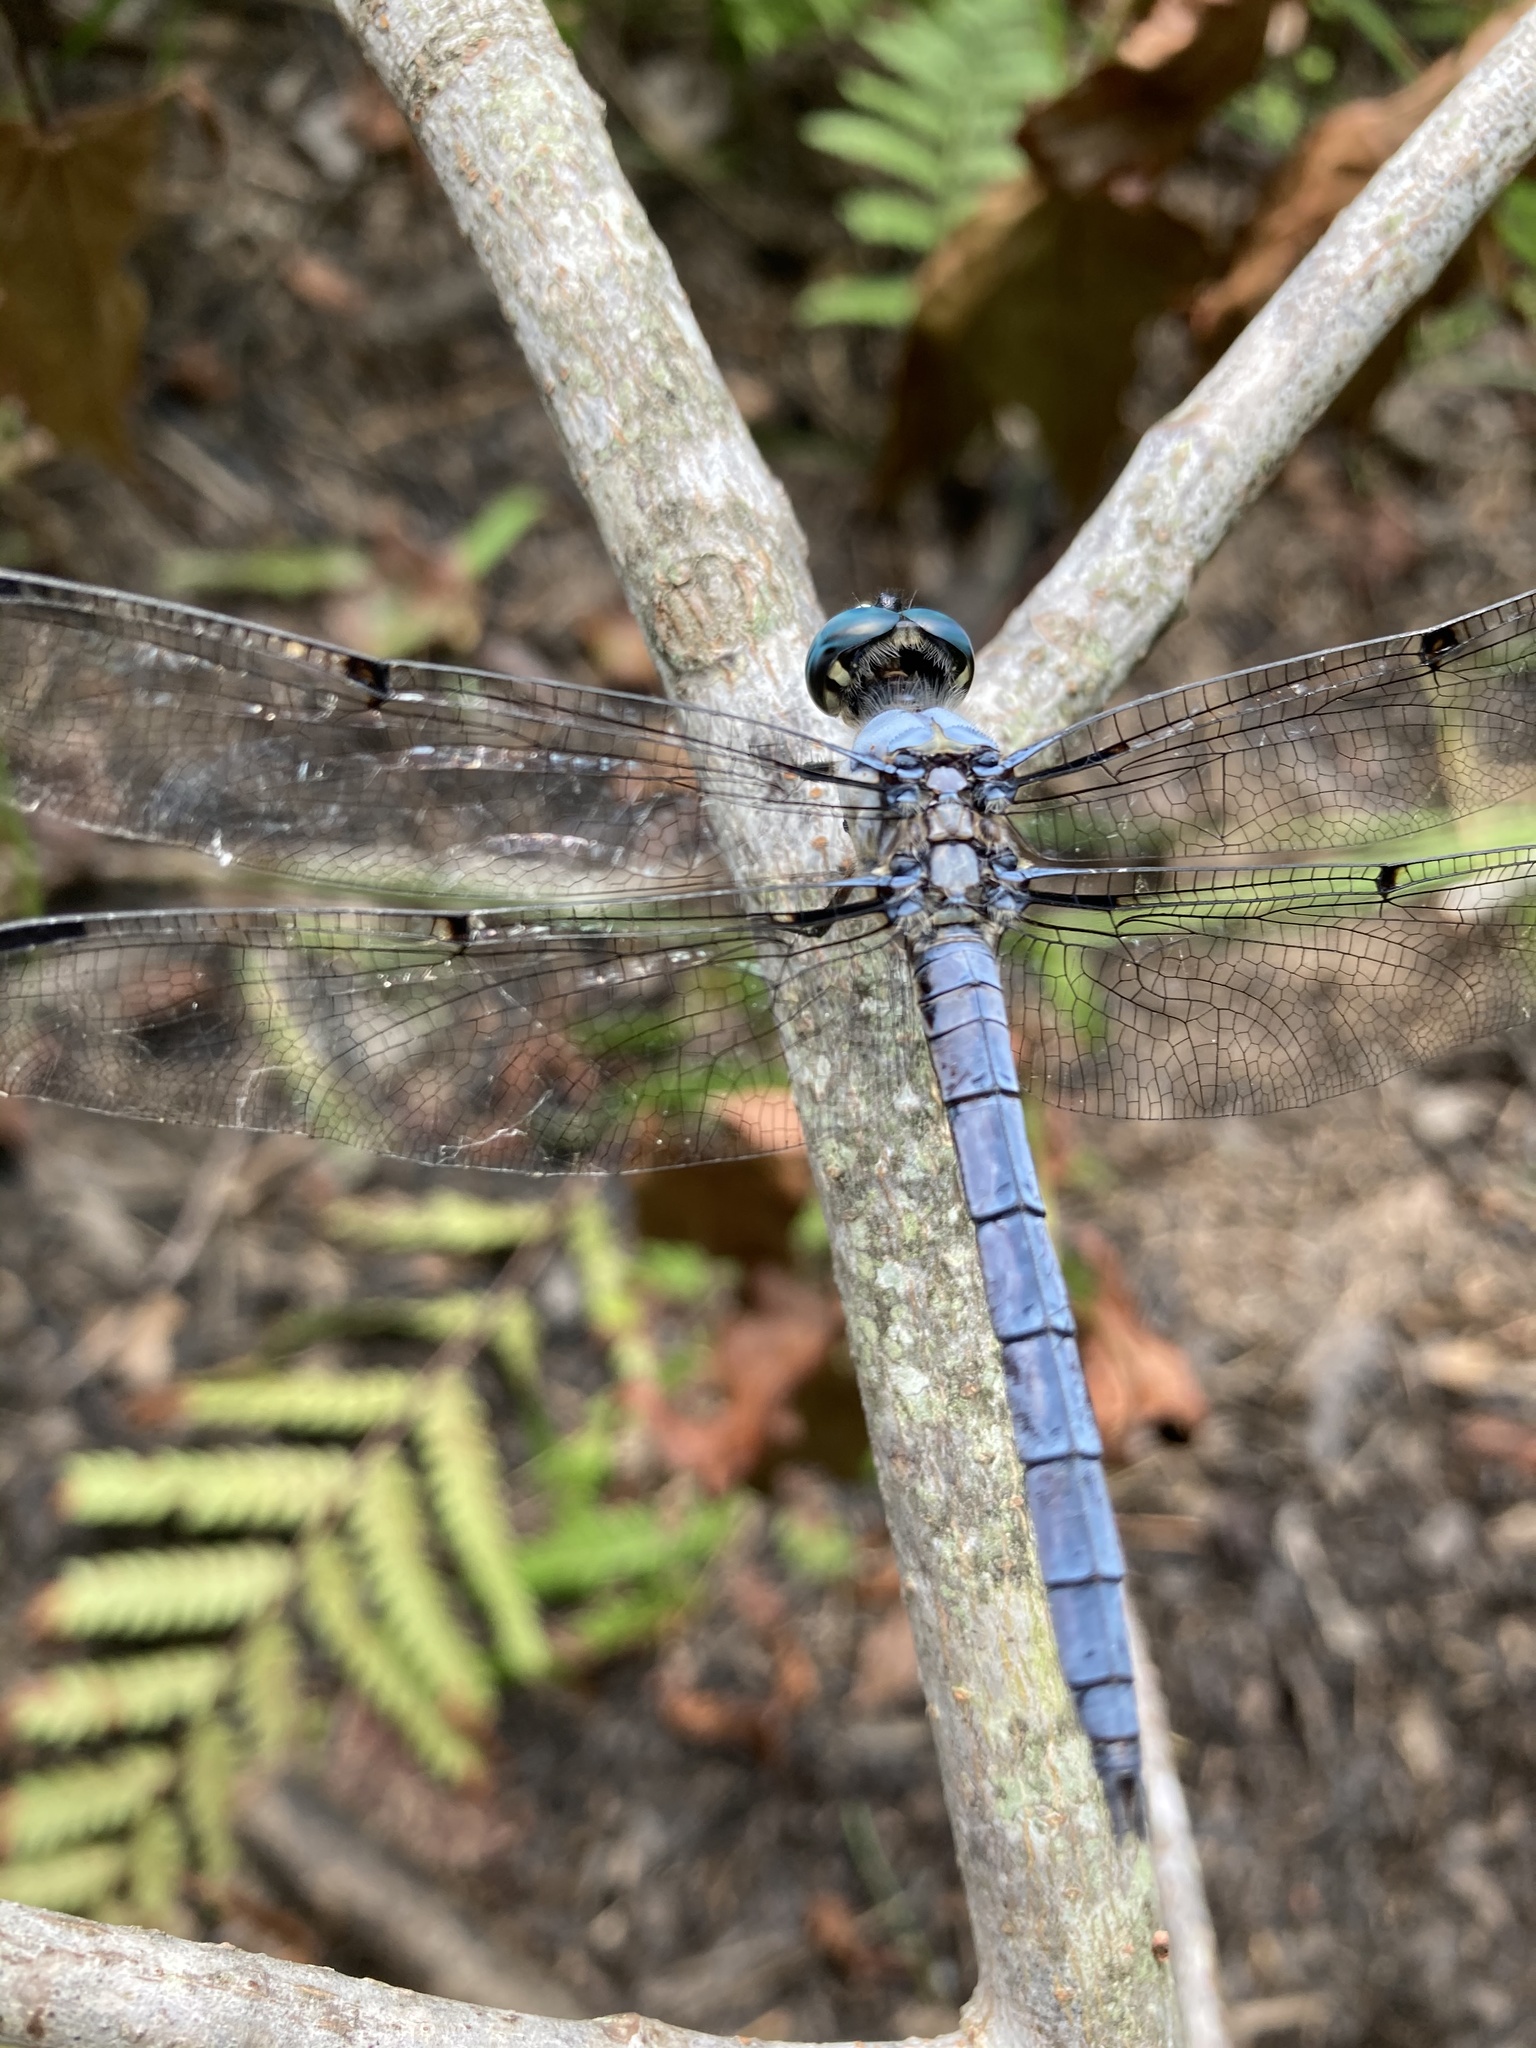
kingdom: Animalia
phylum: Arthropoda
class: Insecta
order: Odonata
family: Libellulidae
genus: Libellula
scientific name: Libellula vibrans
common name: Great blue skimmer
